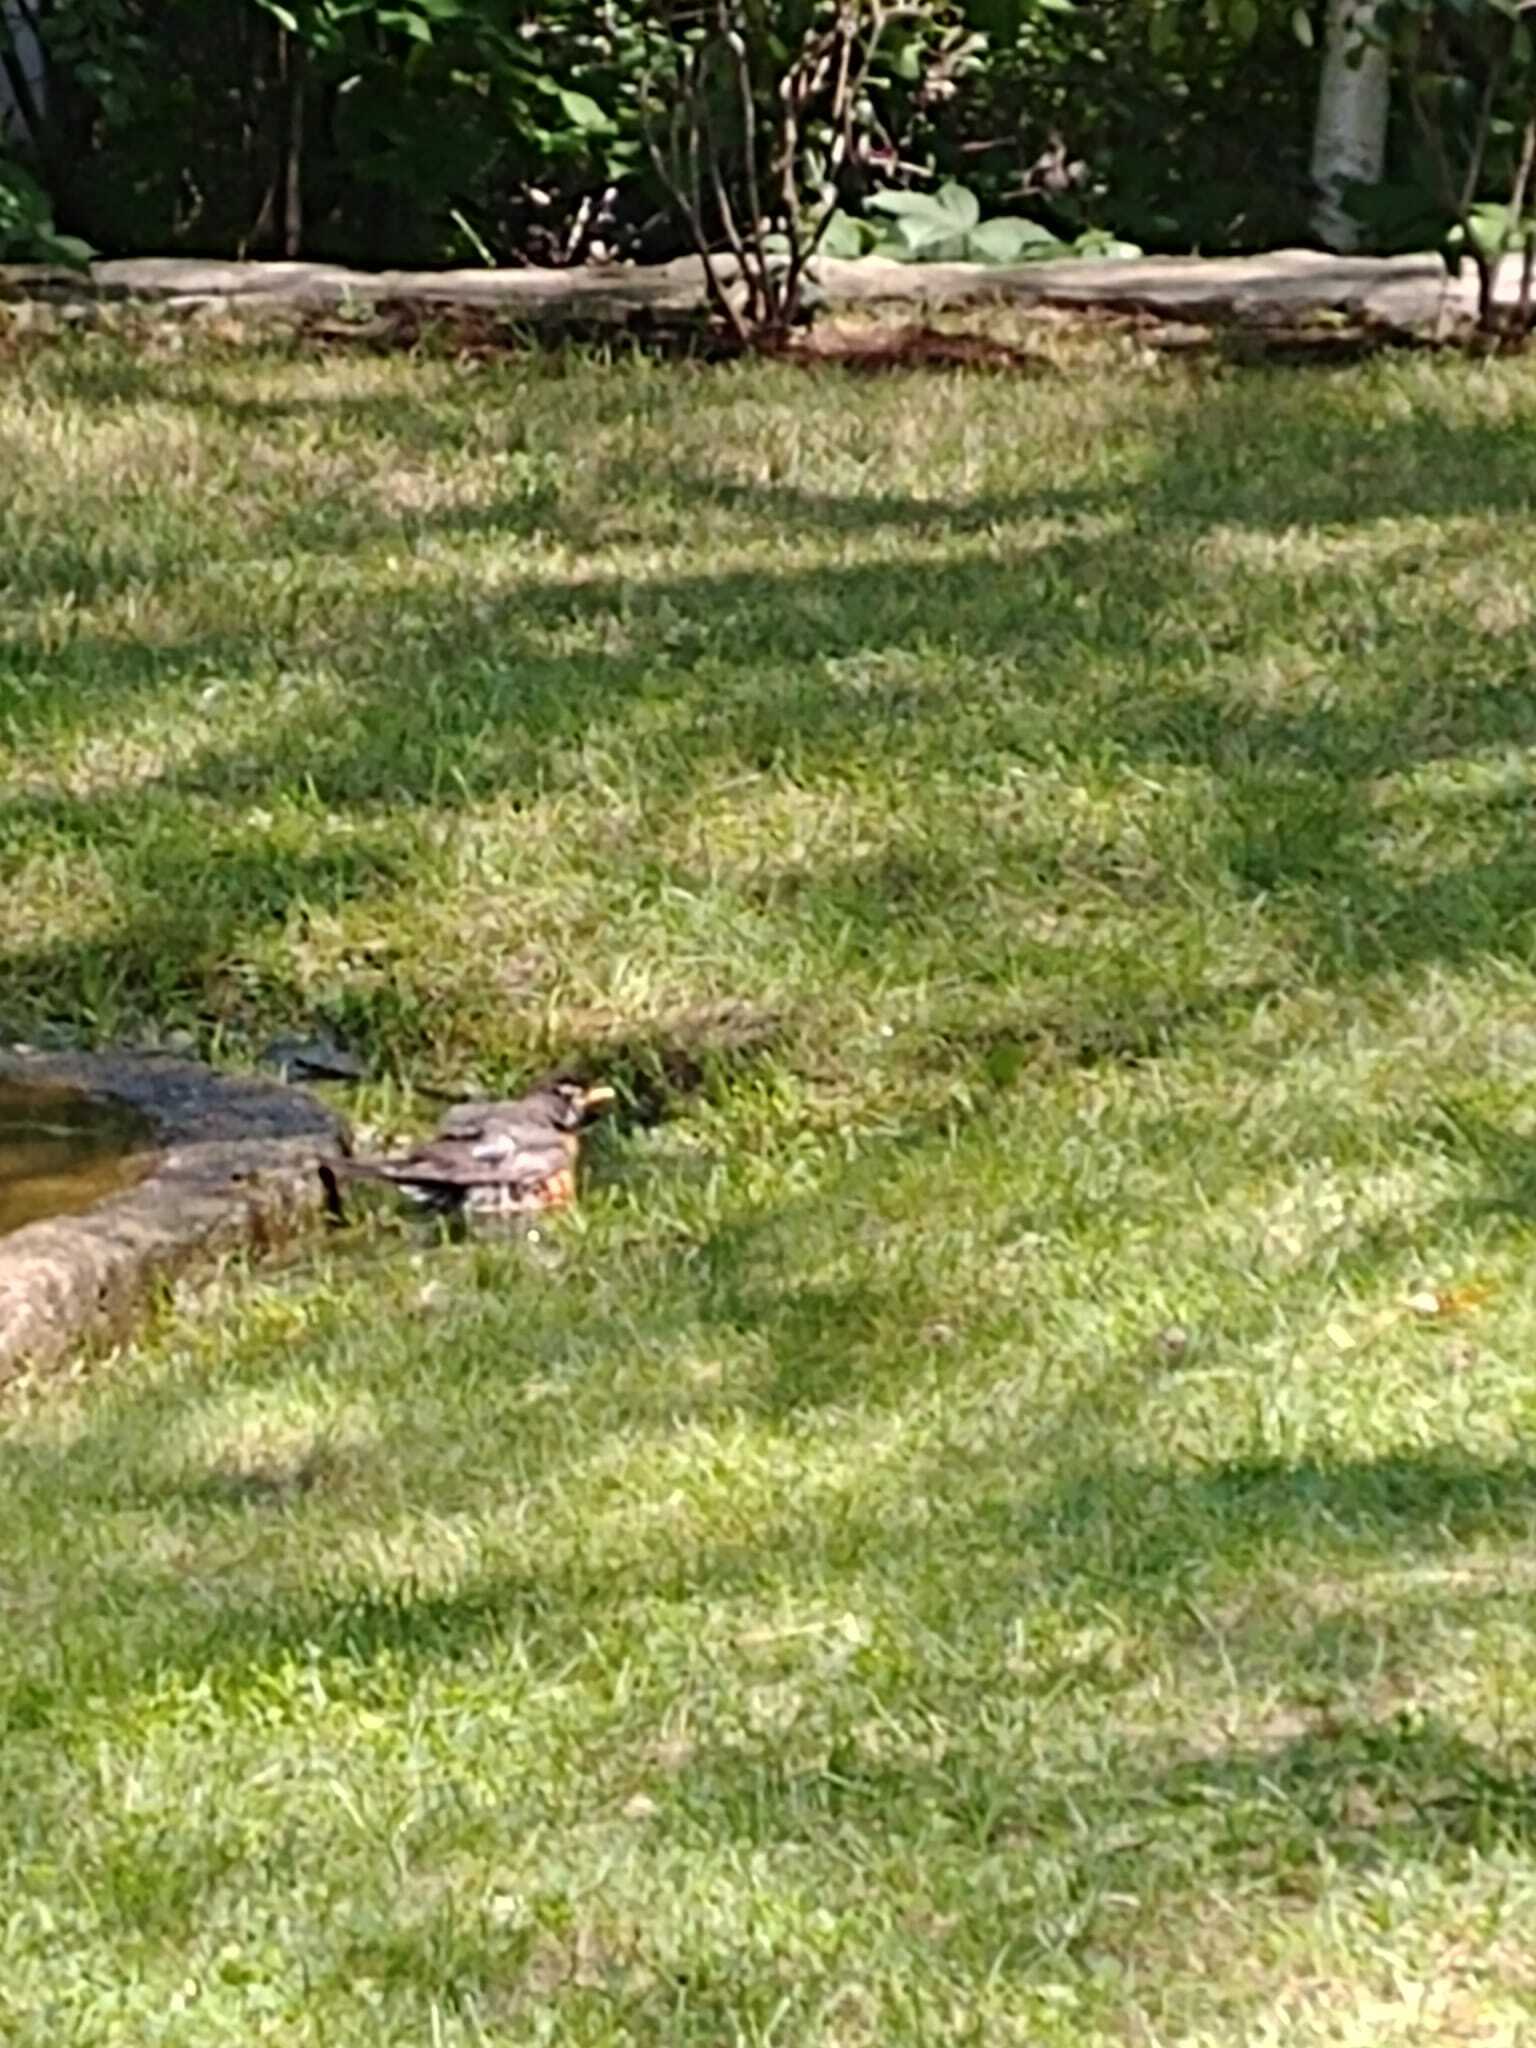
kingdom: Animalia
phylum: Chordata
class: Aves
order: Passeriformes
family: Turdidae
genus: Turdus
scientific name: Turdus migratorius
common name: American robin
